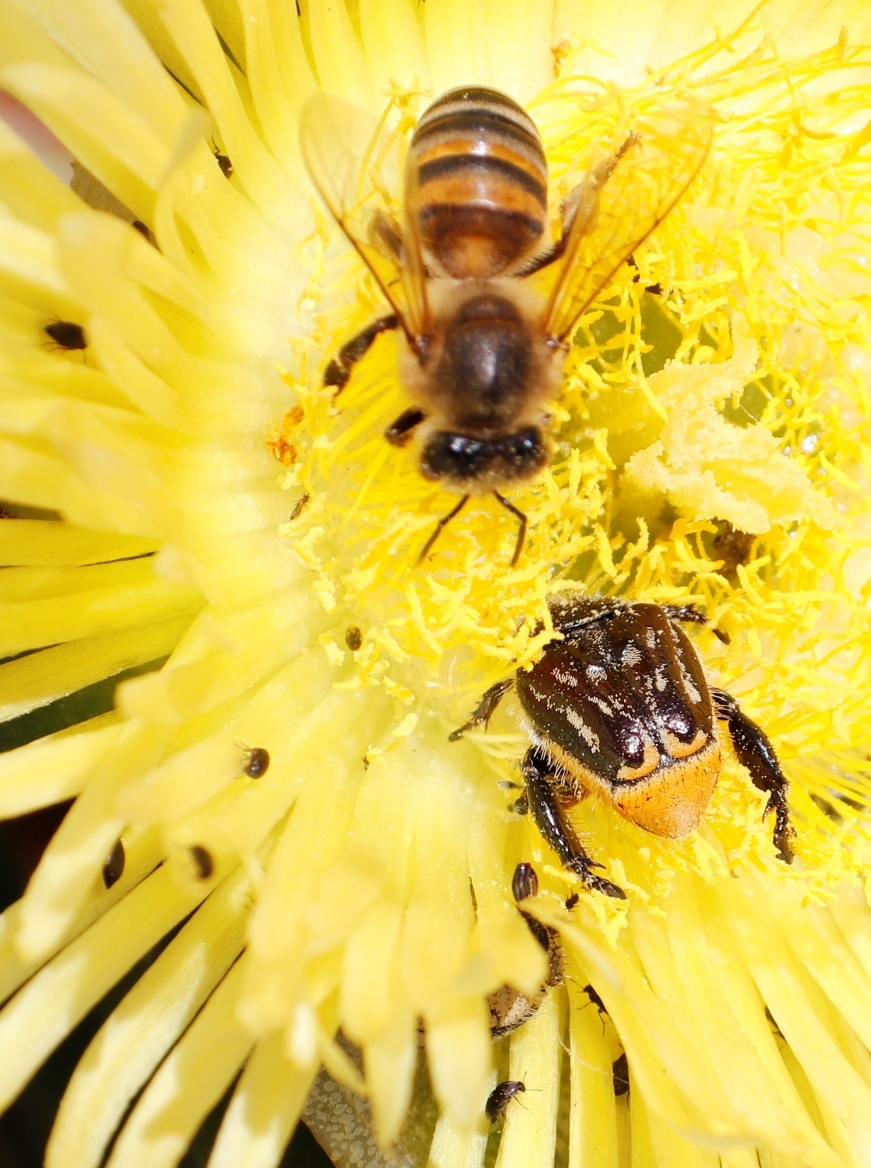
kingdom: Plantae
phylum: Tracheophyta
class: Magnoliopsida
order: Caryophyllales
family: Aizoaceae
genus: Carpobrotus
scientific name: Carpobrotus edulis
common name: Hottentot-fig
